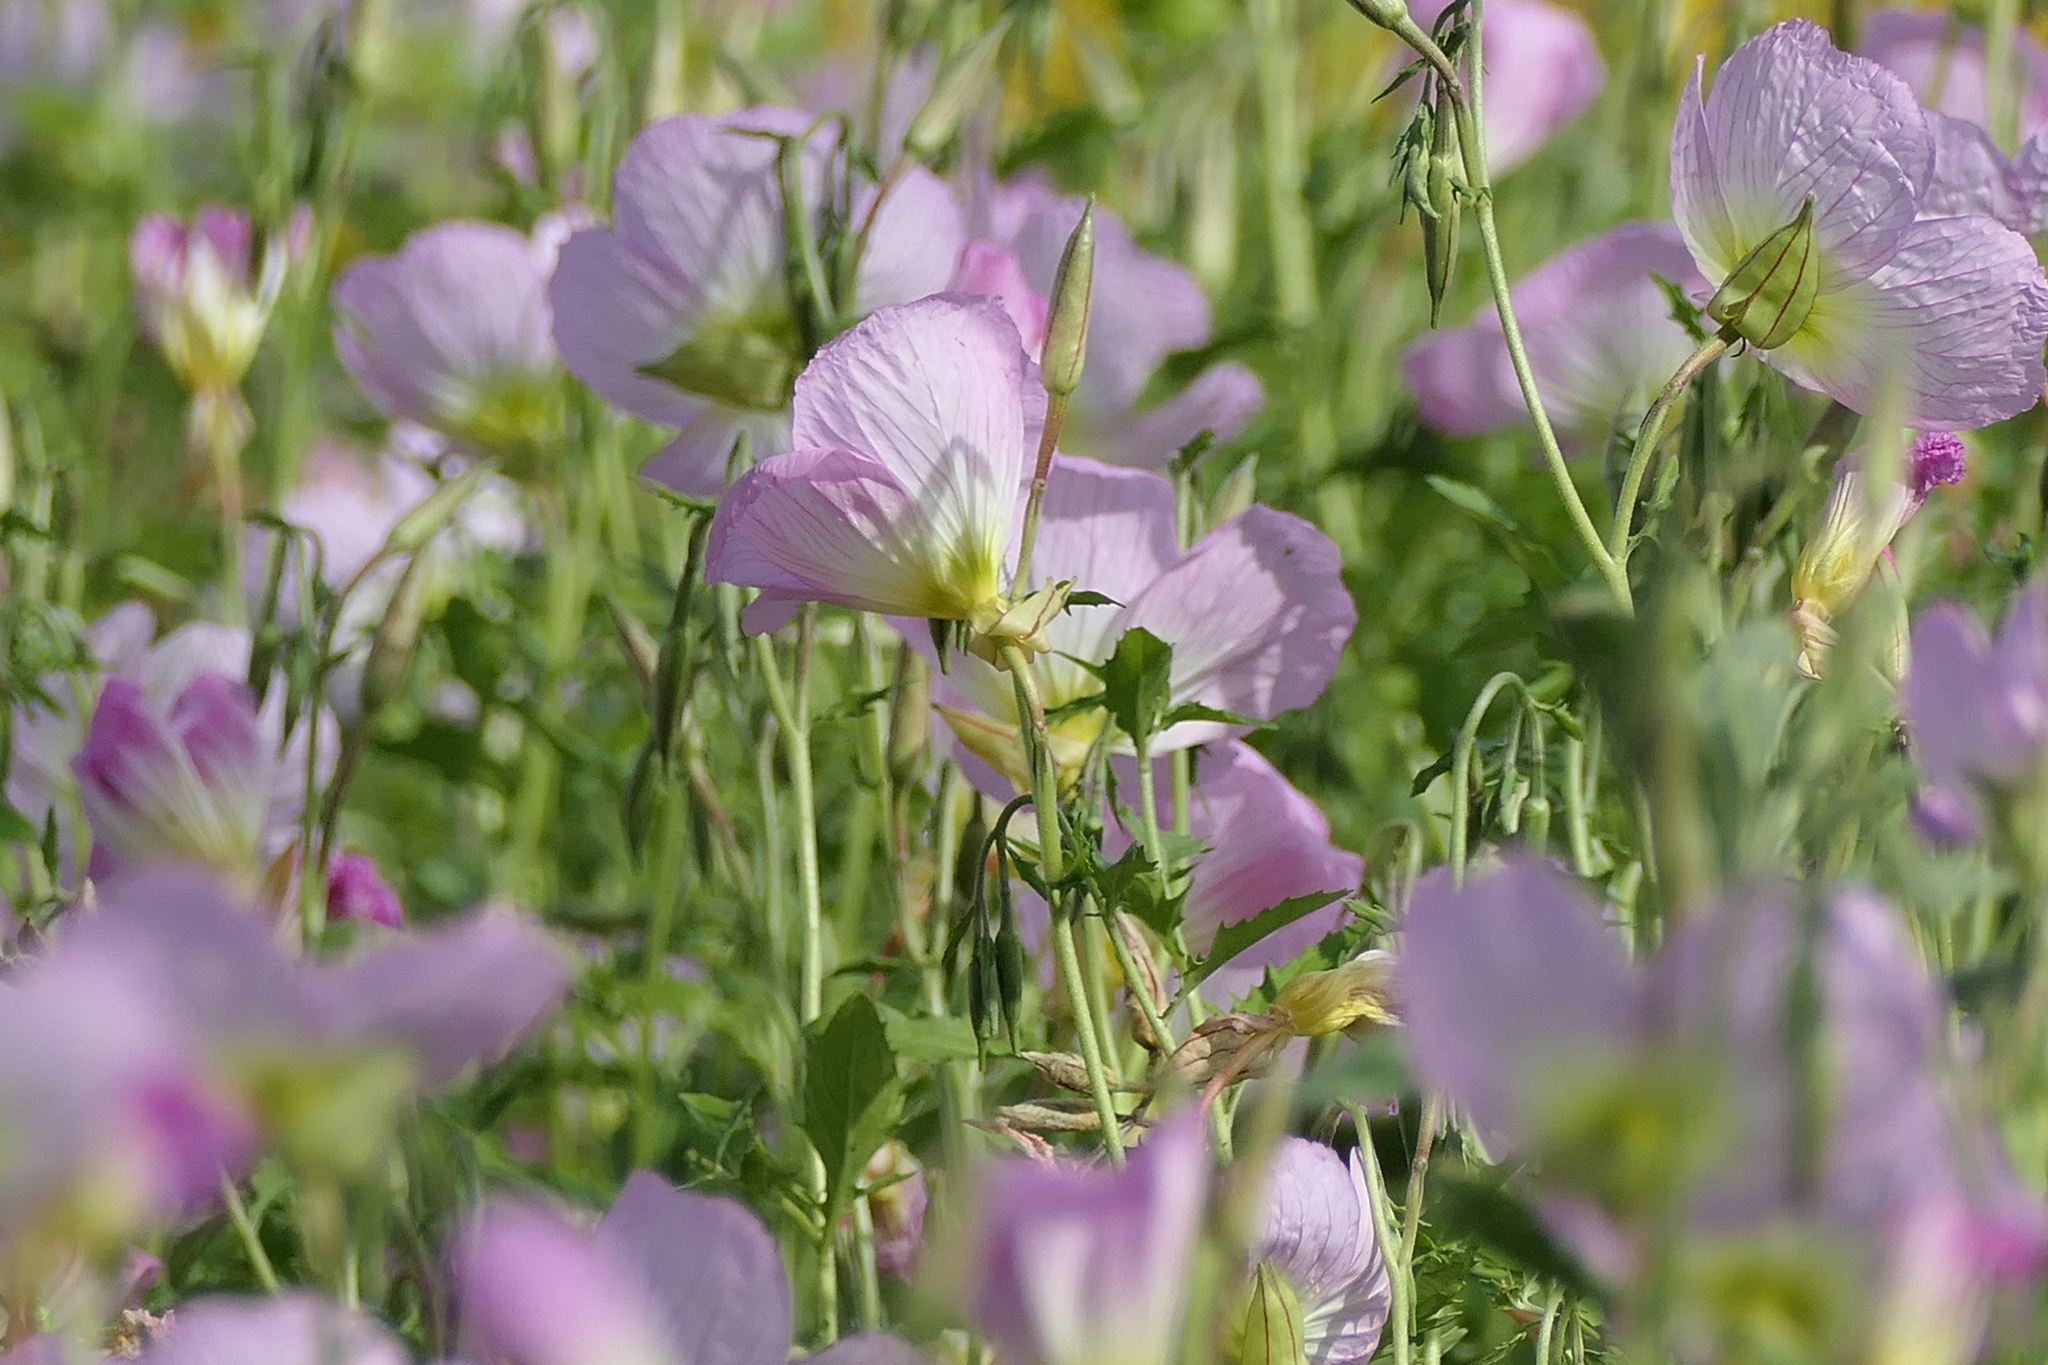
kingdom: Plantae
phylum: Tracheophyta
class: Magnoliopsida
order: Myrtales
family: Onagraceae
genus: Oenothera
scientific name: Oenothera speciosa
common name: White evening-primrose
